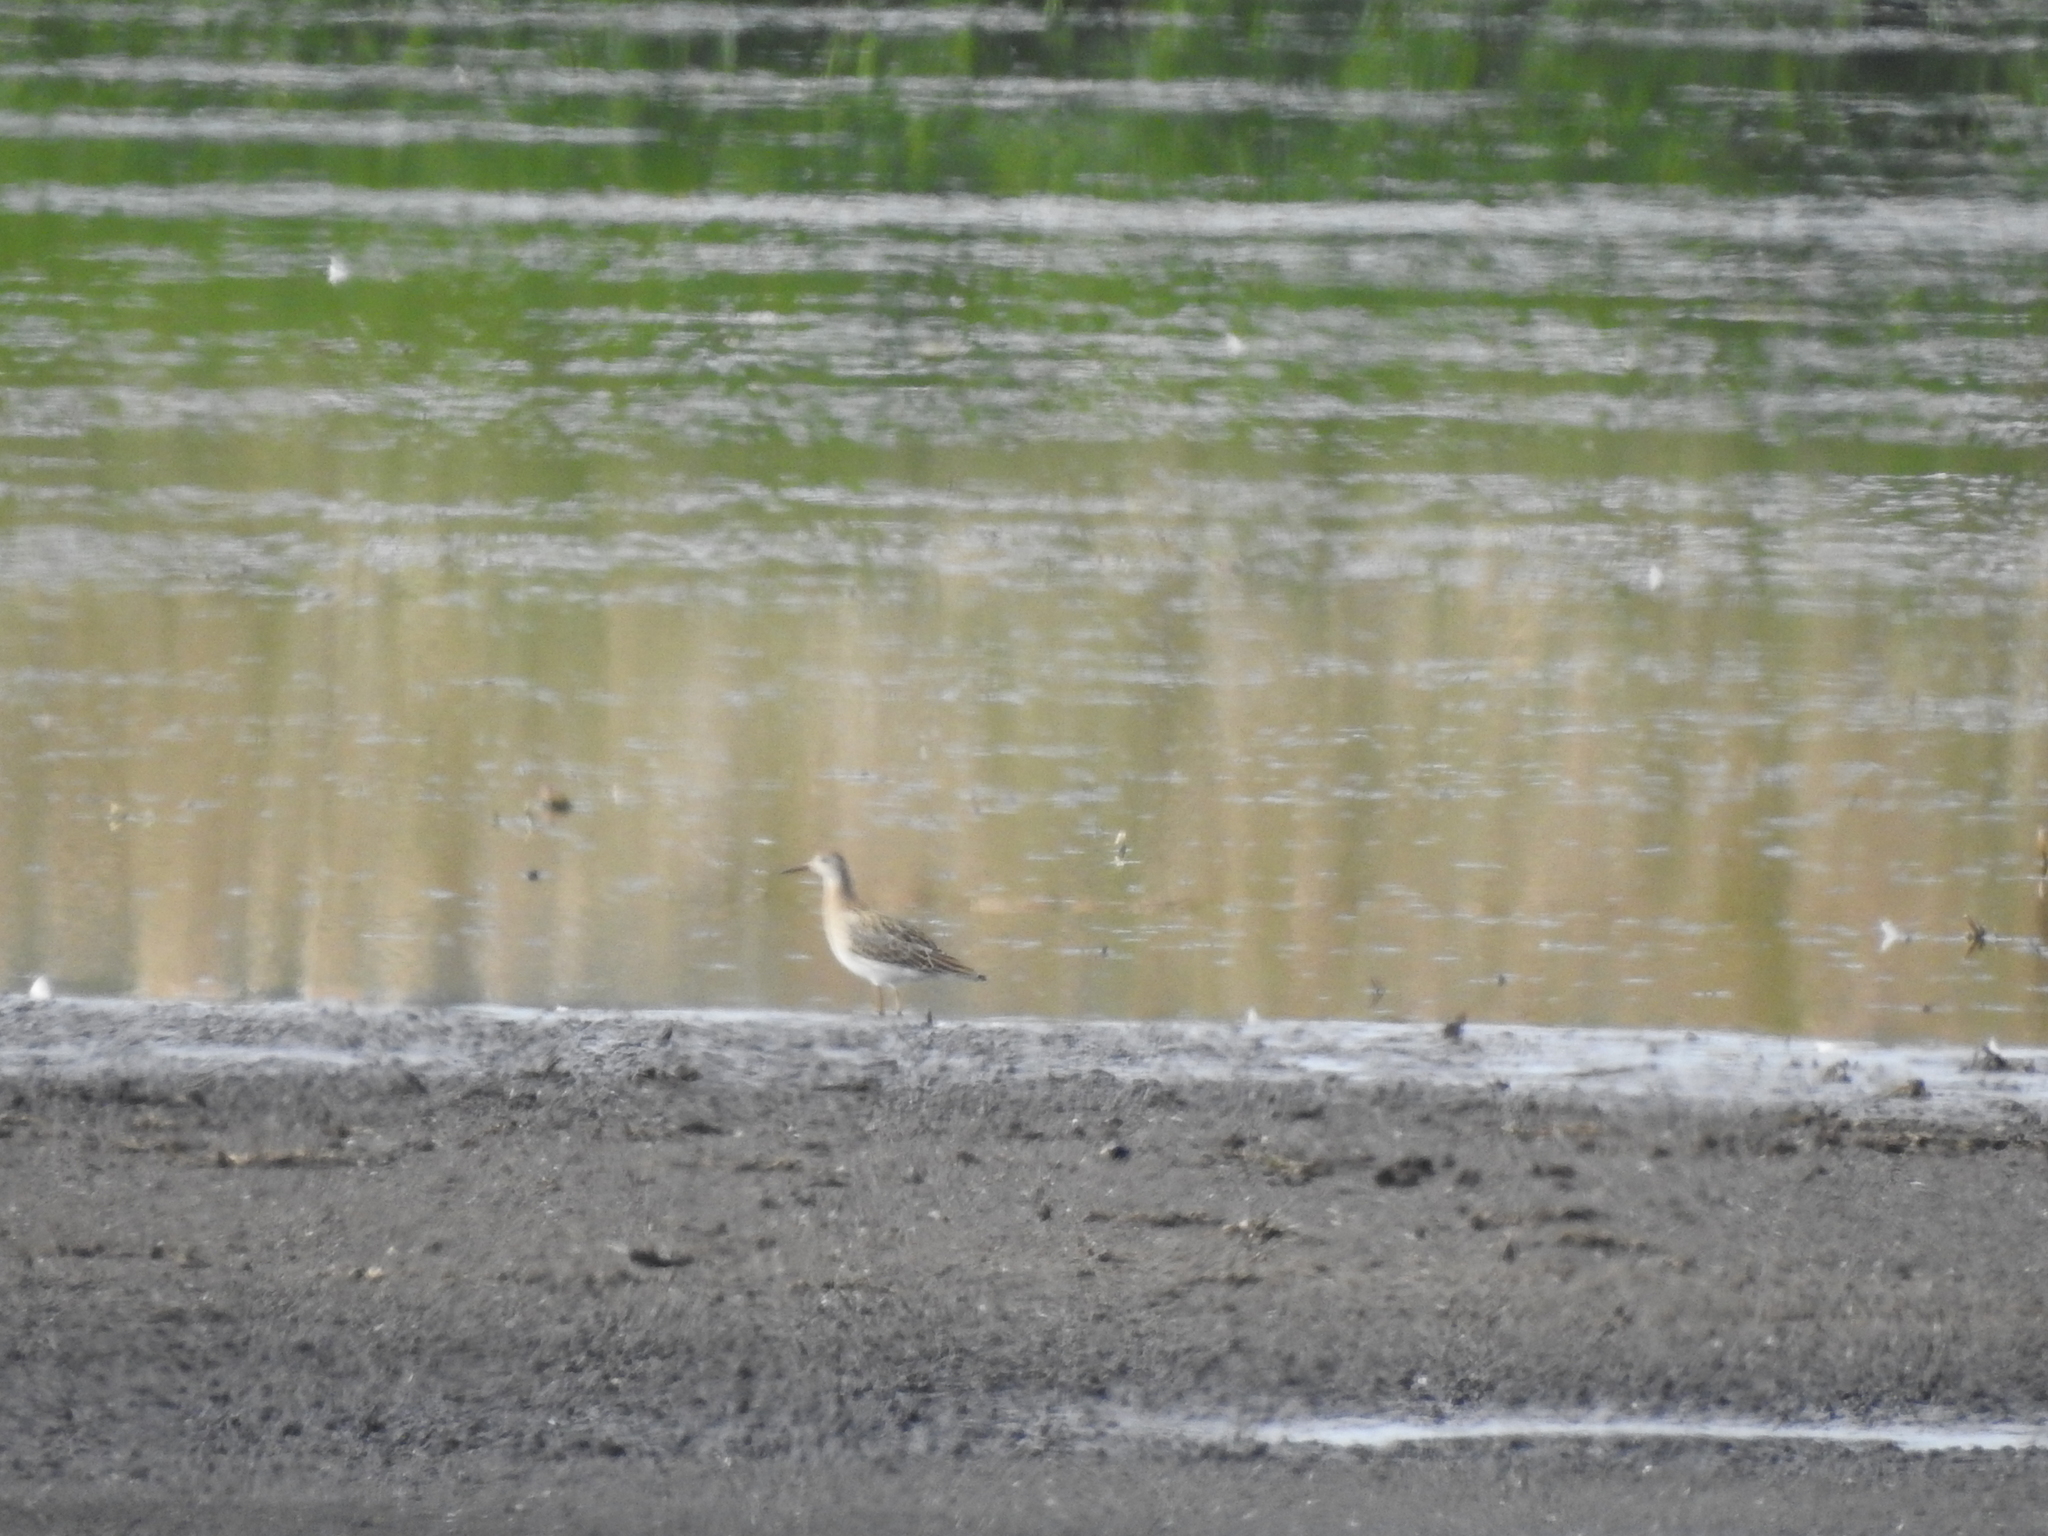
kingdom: Animalia
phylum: Chordata
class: Aves
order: Charadriiformes
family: Scolopacidae
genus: Calidris
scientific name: Calidris pugnax
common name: Ruff
